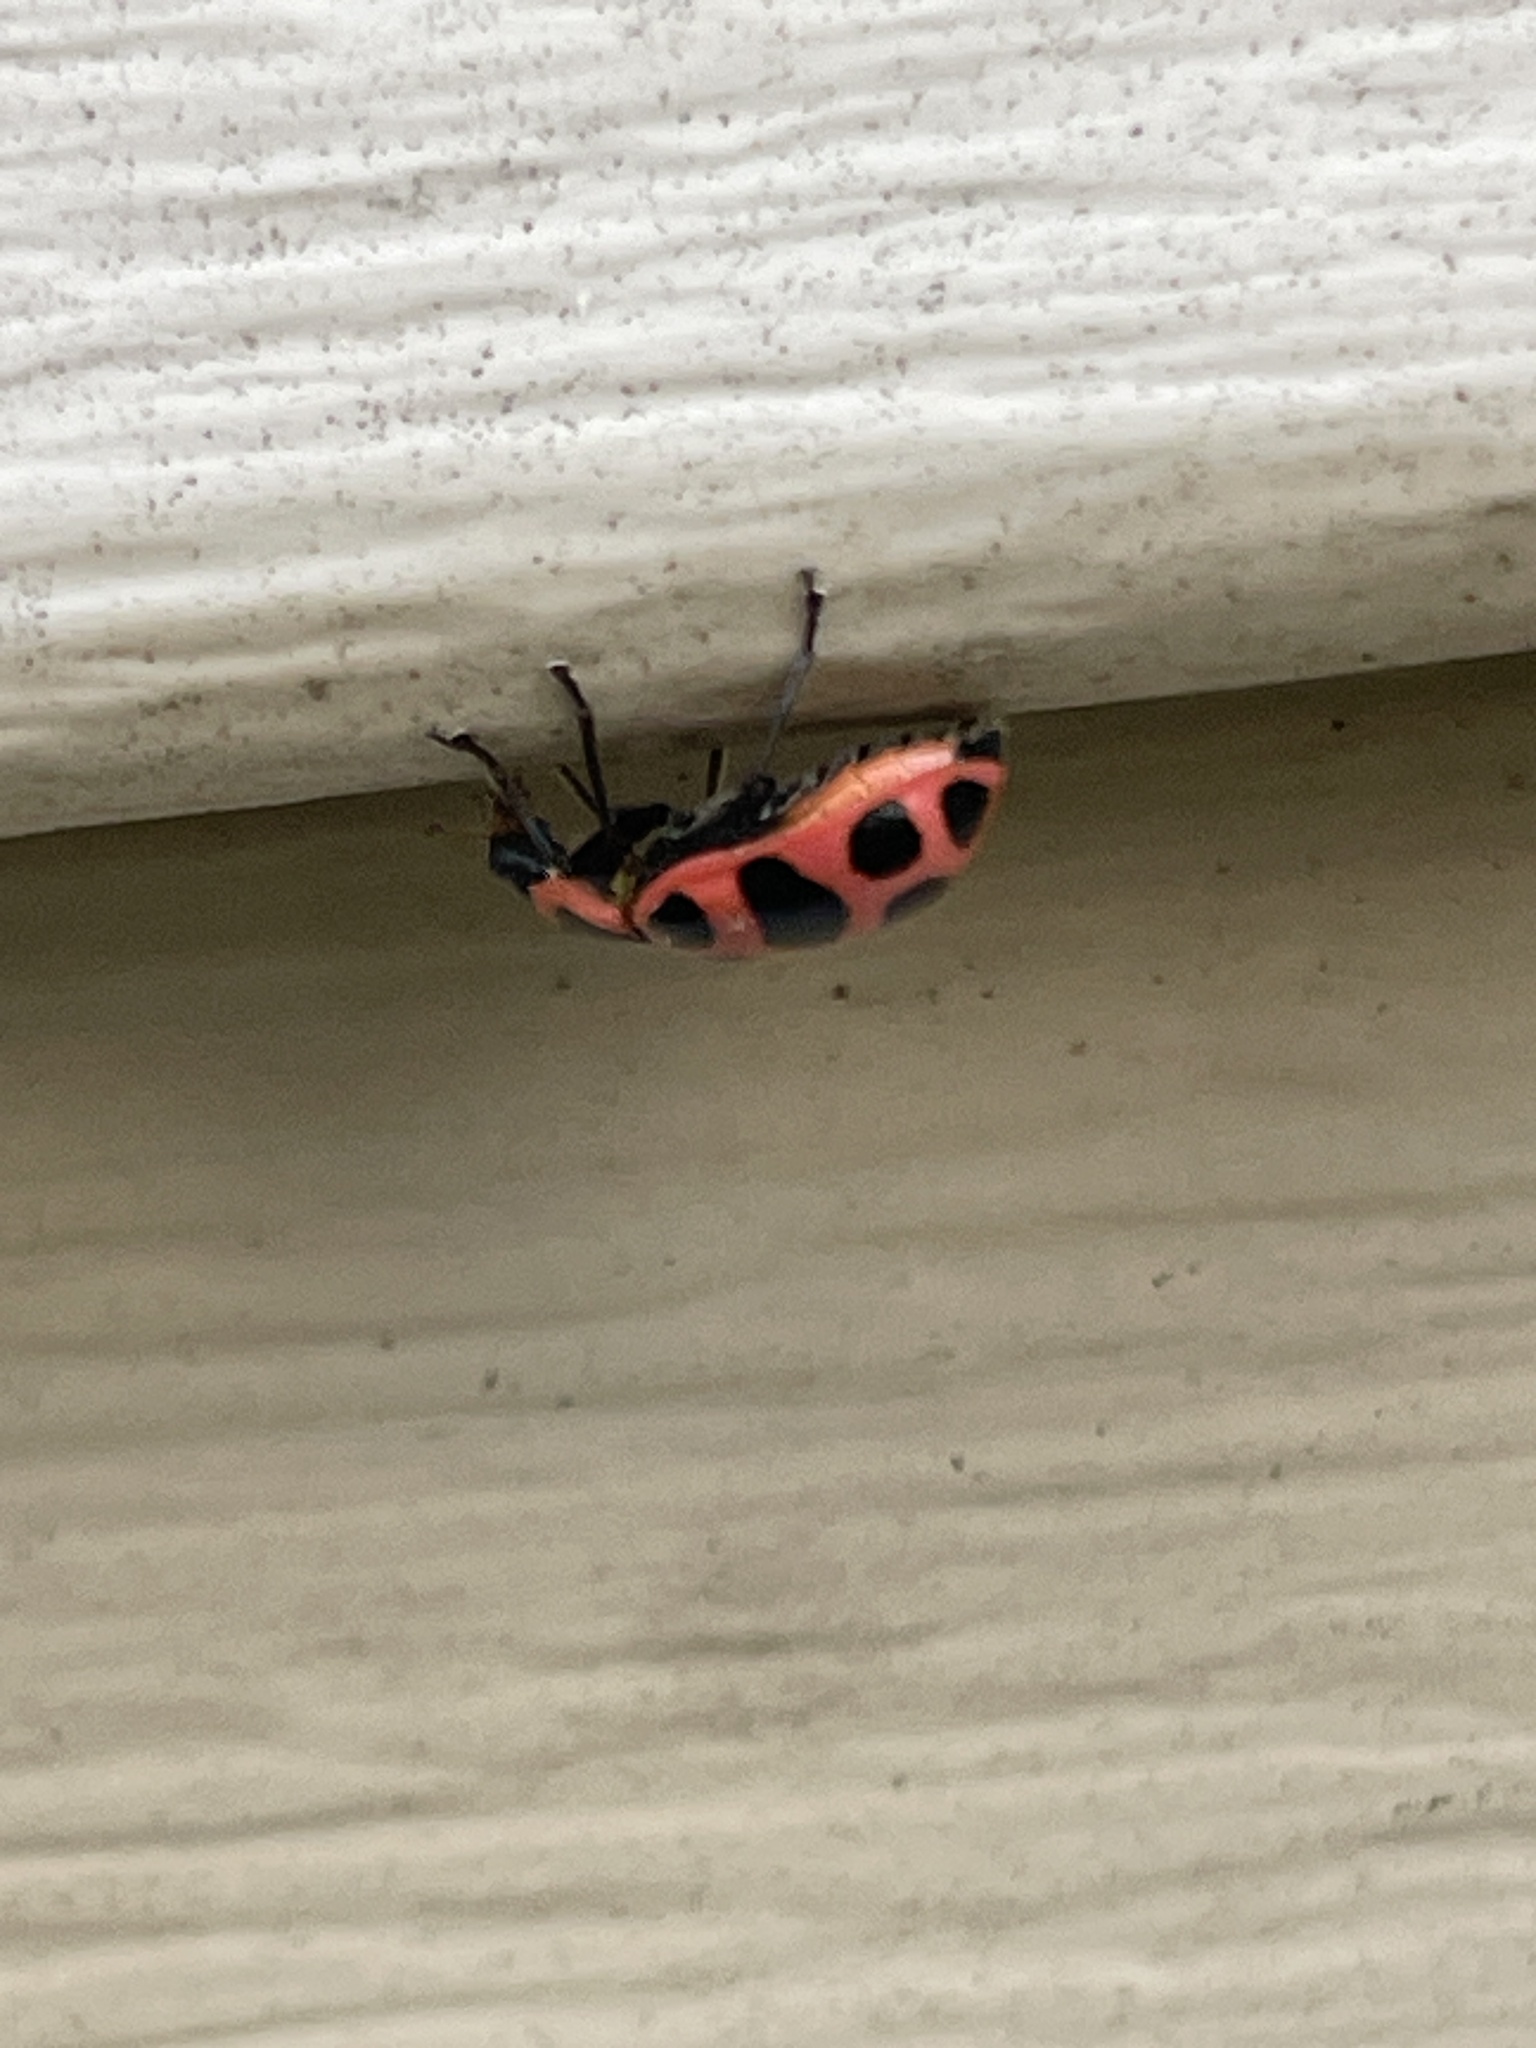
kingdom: Animalia
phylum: Arthropoda
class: Insecta
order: Coleoptera
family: Coccinellidae
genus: Coleomegilla
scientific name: Coleomegilla maculata
